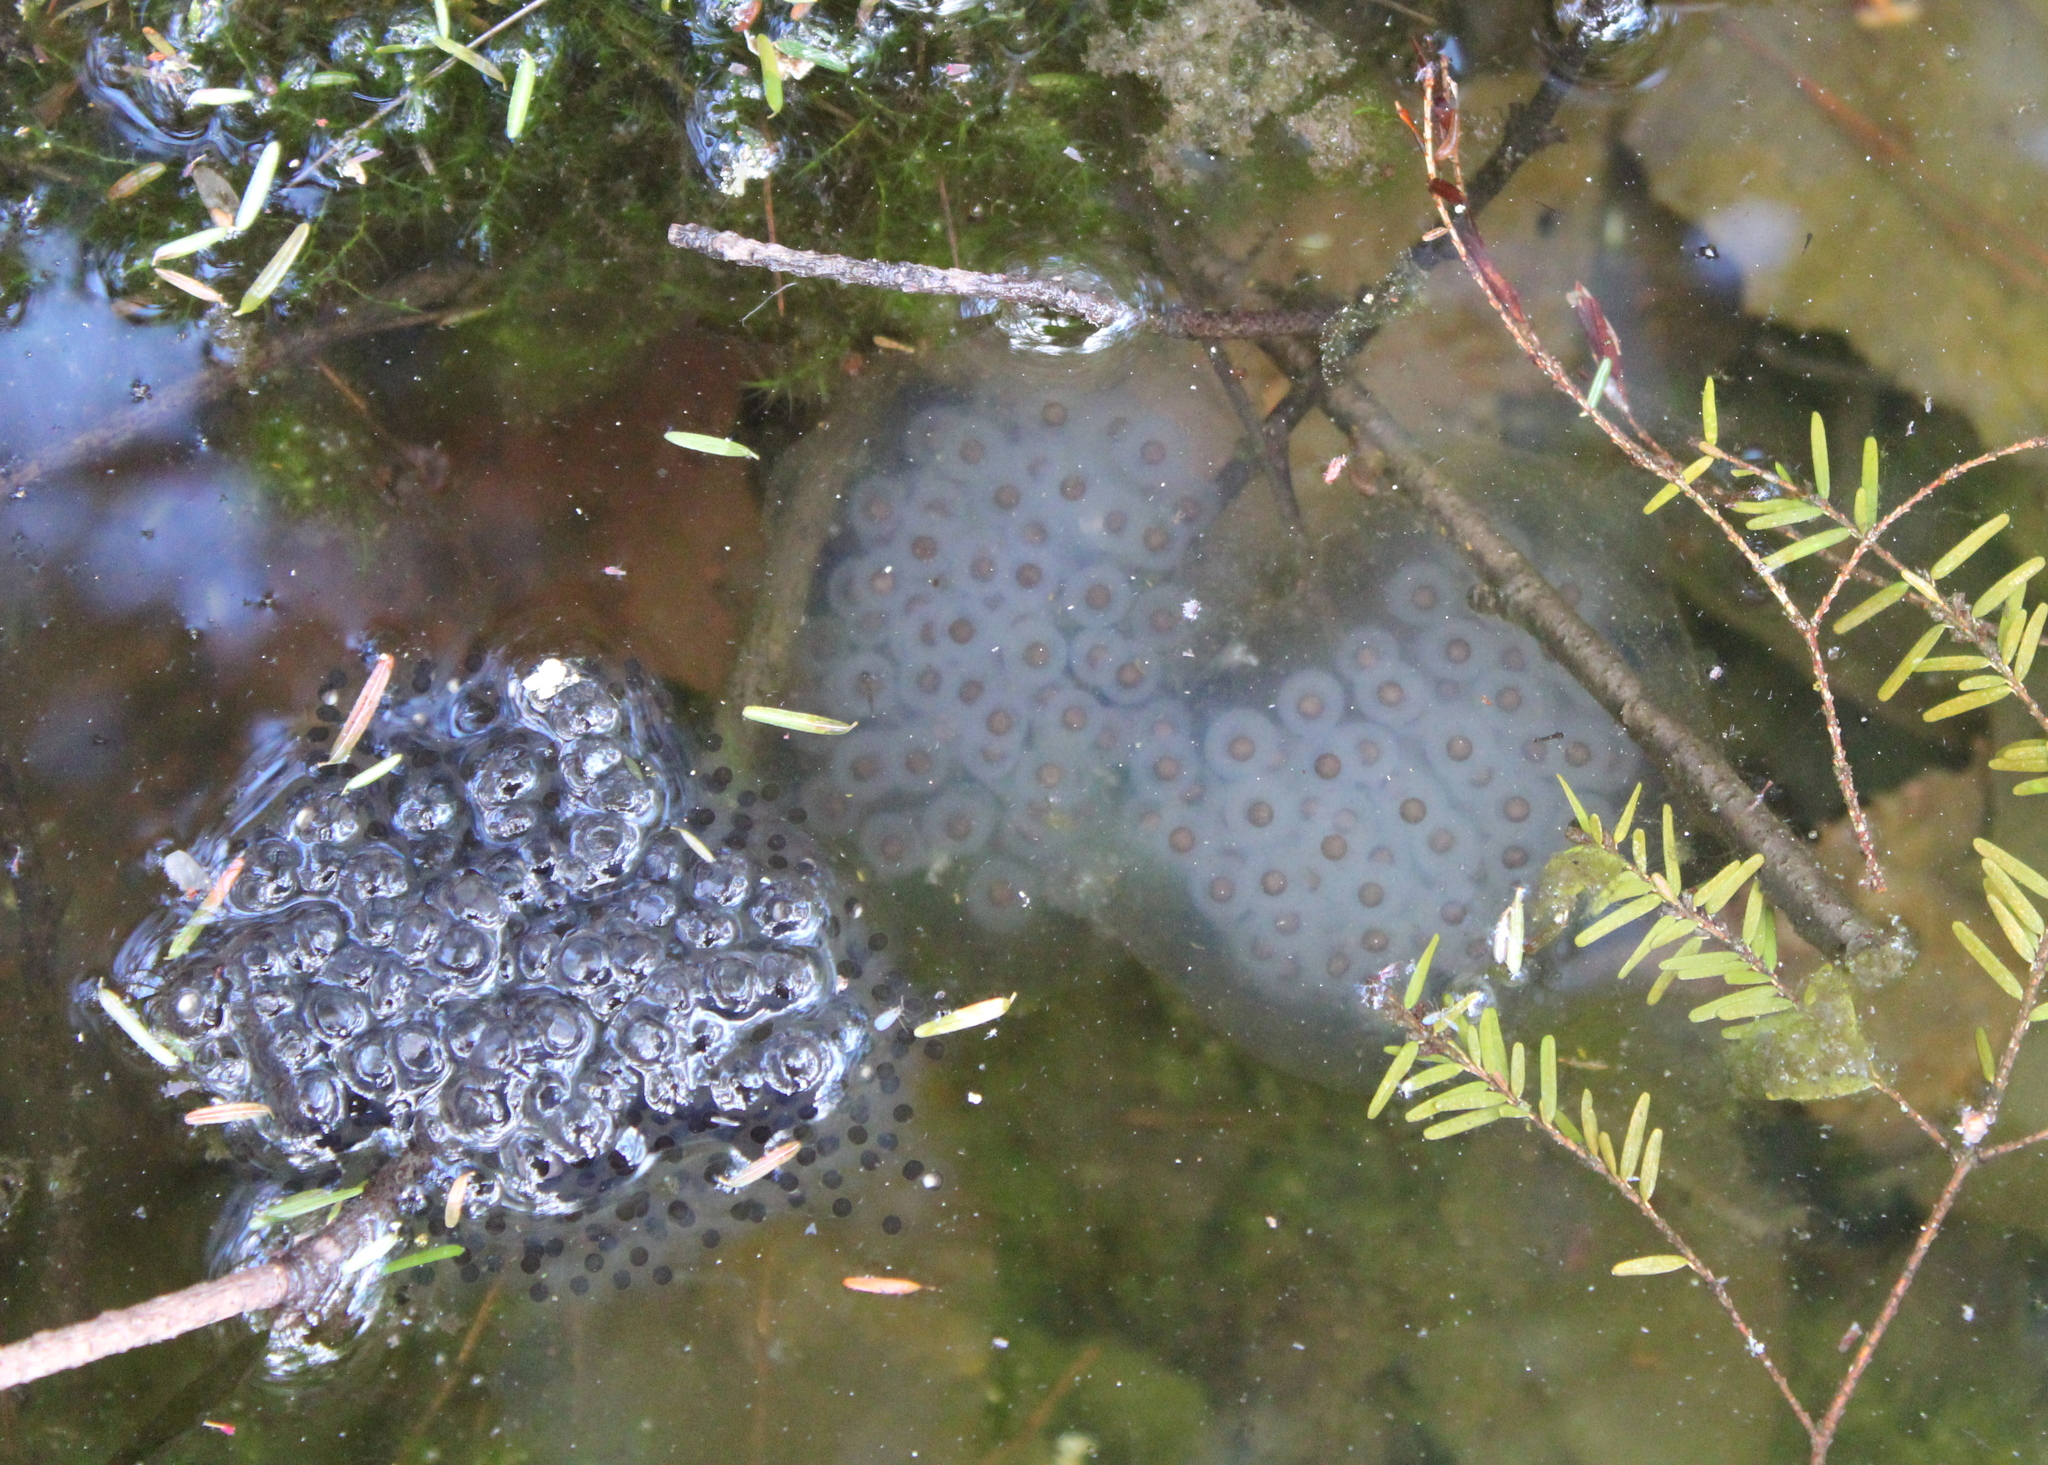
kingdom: Animalia
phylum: Chordata
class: Amphibia
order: Anura
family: Ranidae
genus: Lithobates
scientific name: Lithobates sylvaticus
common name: Wood frog
